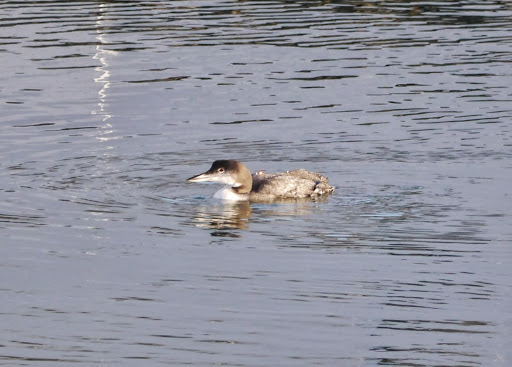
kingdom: Animalia
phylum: Chordata
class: Aves
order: Gaviiformes
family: Gaviidae
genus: Gavia
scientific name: Gavia immer
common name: Common loon
